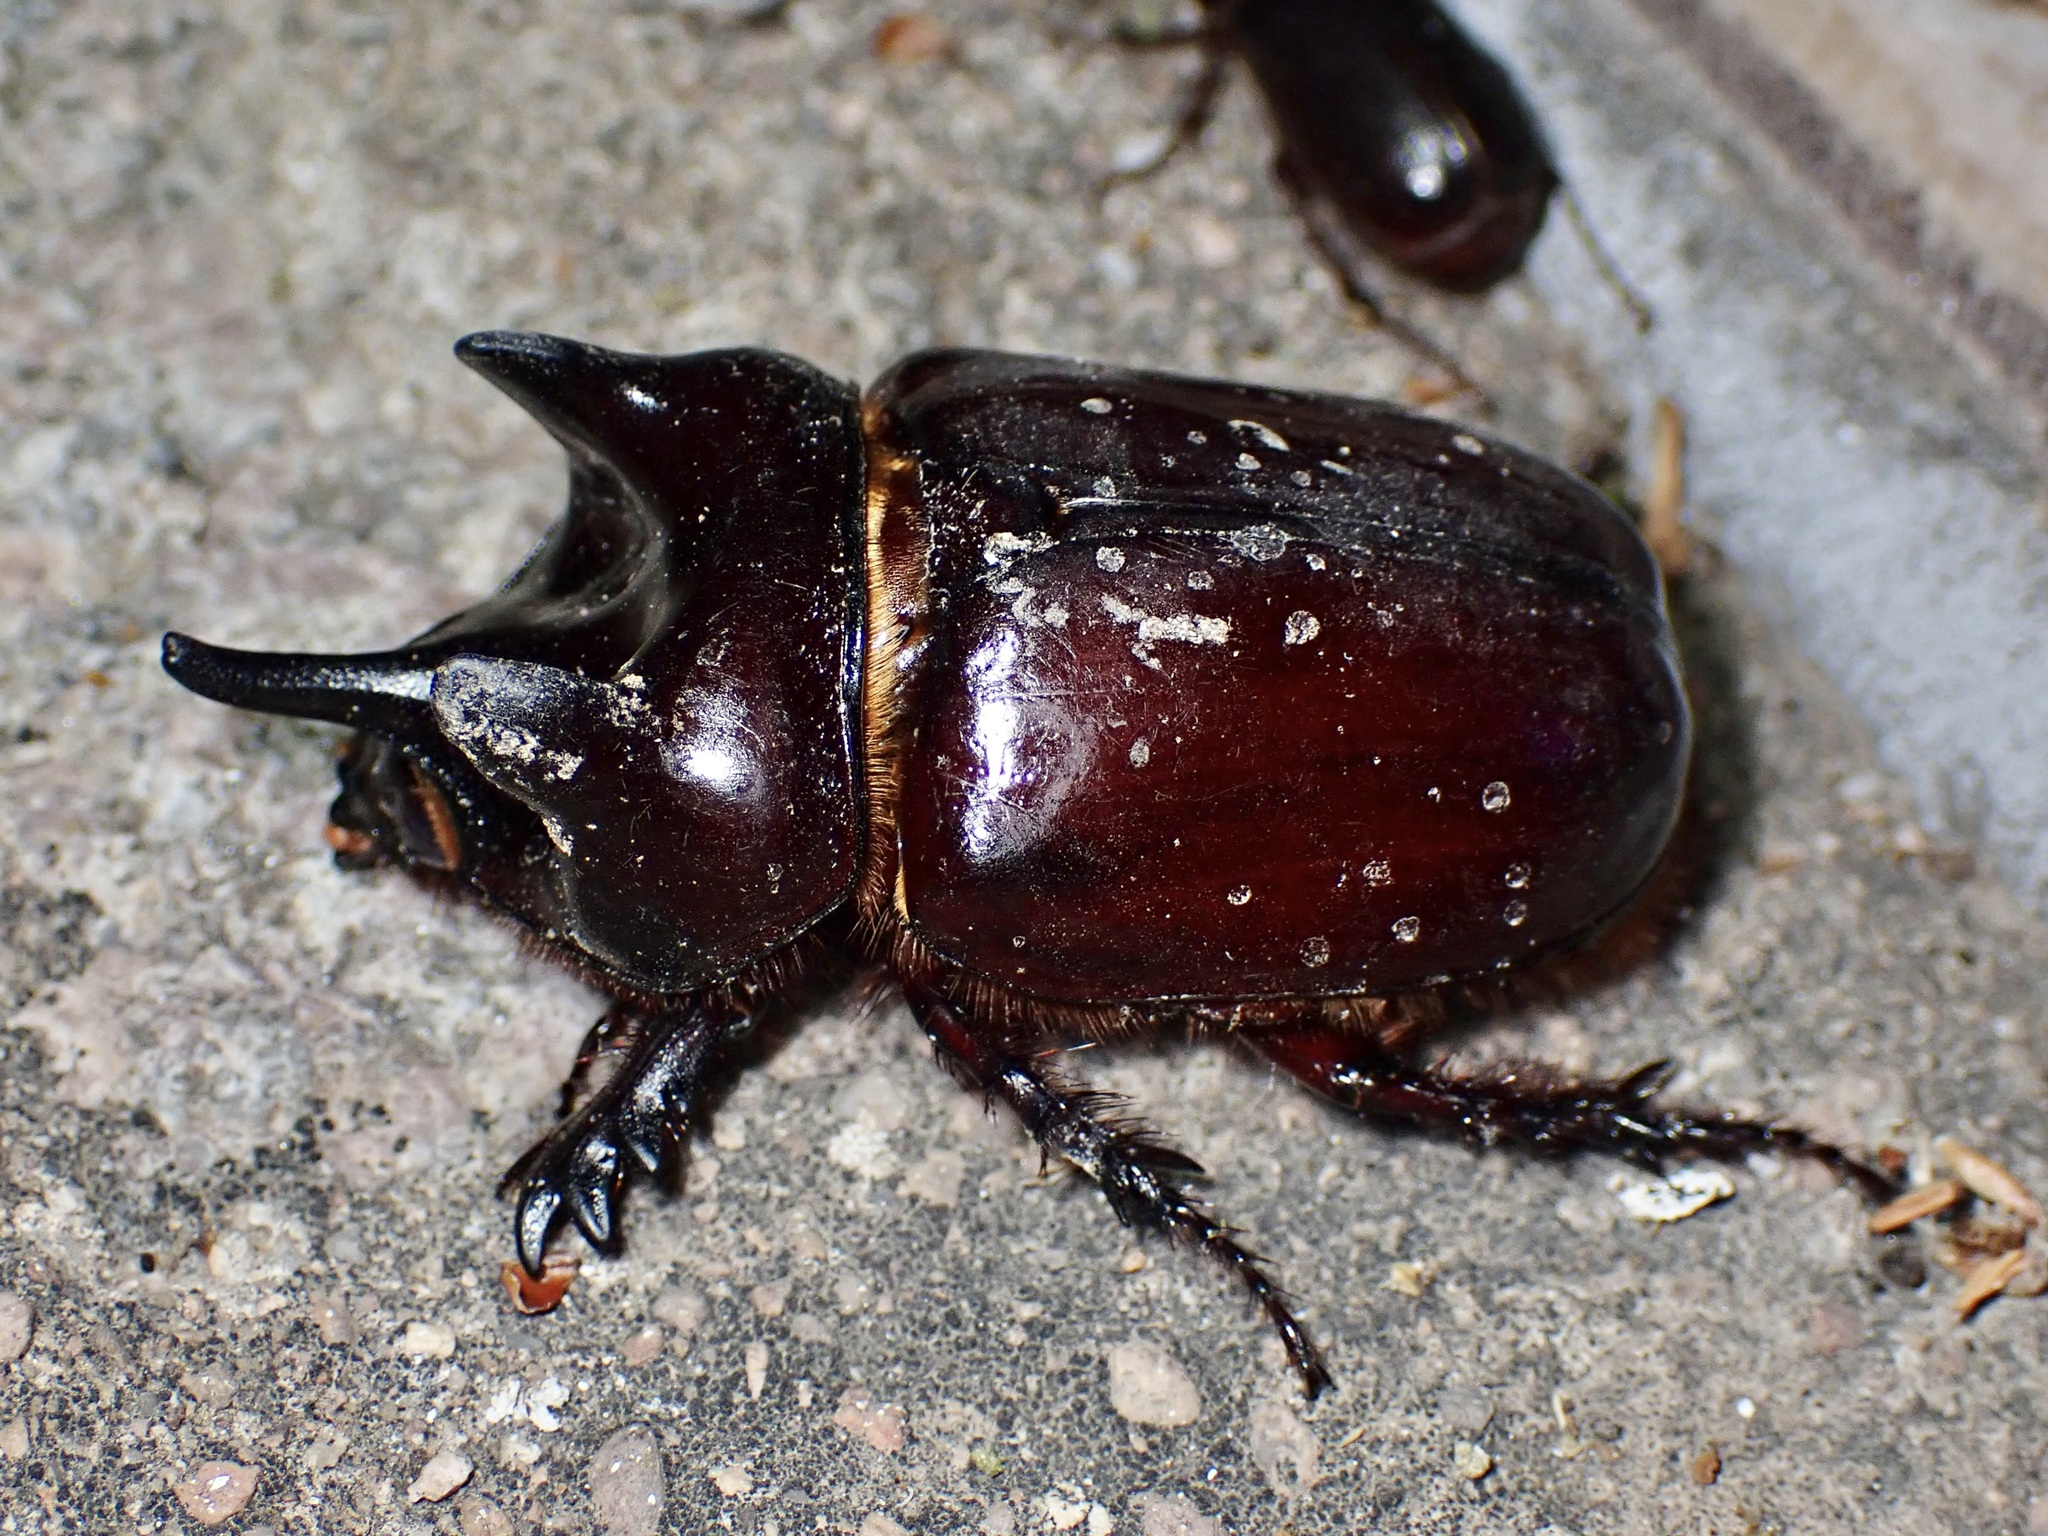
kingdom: Animalia
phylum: Arthropoda
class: Insecta
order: Coleoptera
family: Scarabaeidae
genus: Strategus
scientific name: Strategus aloeus
